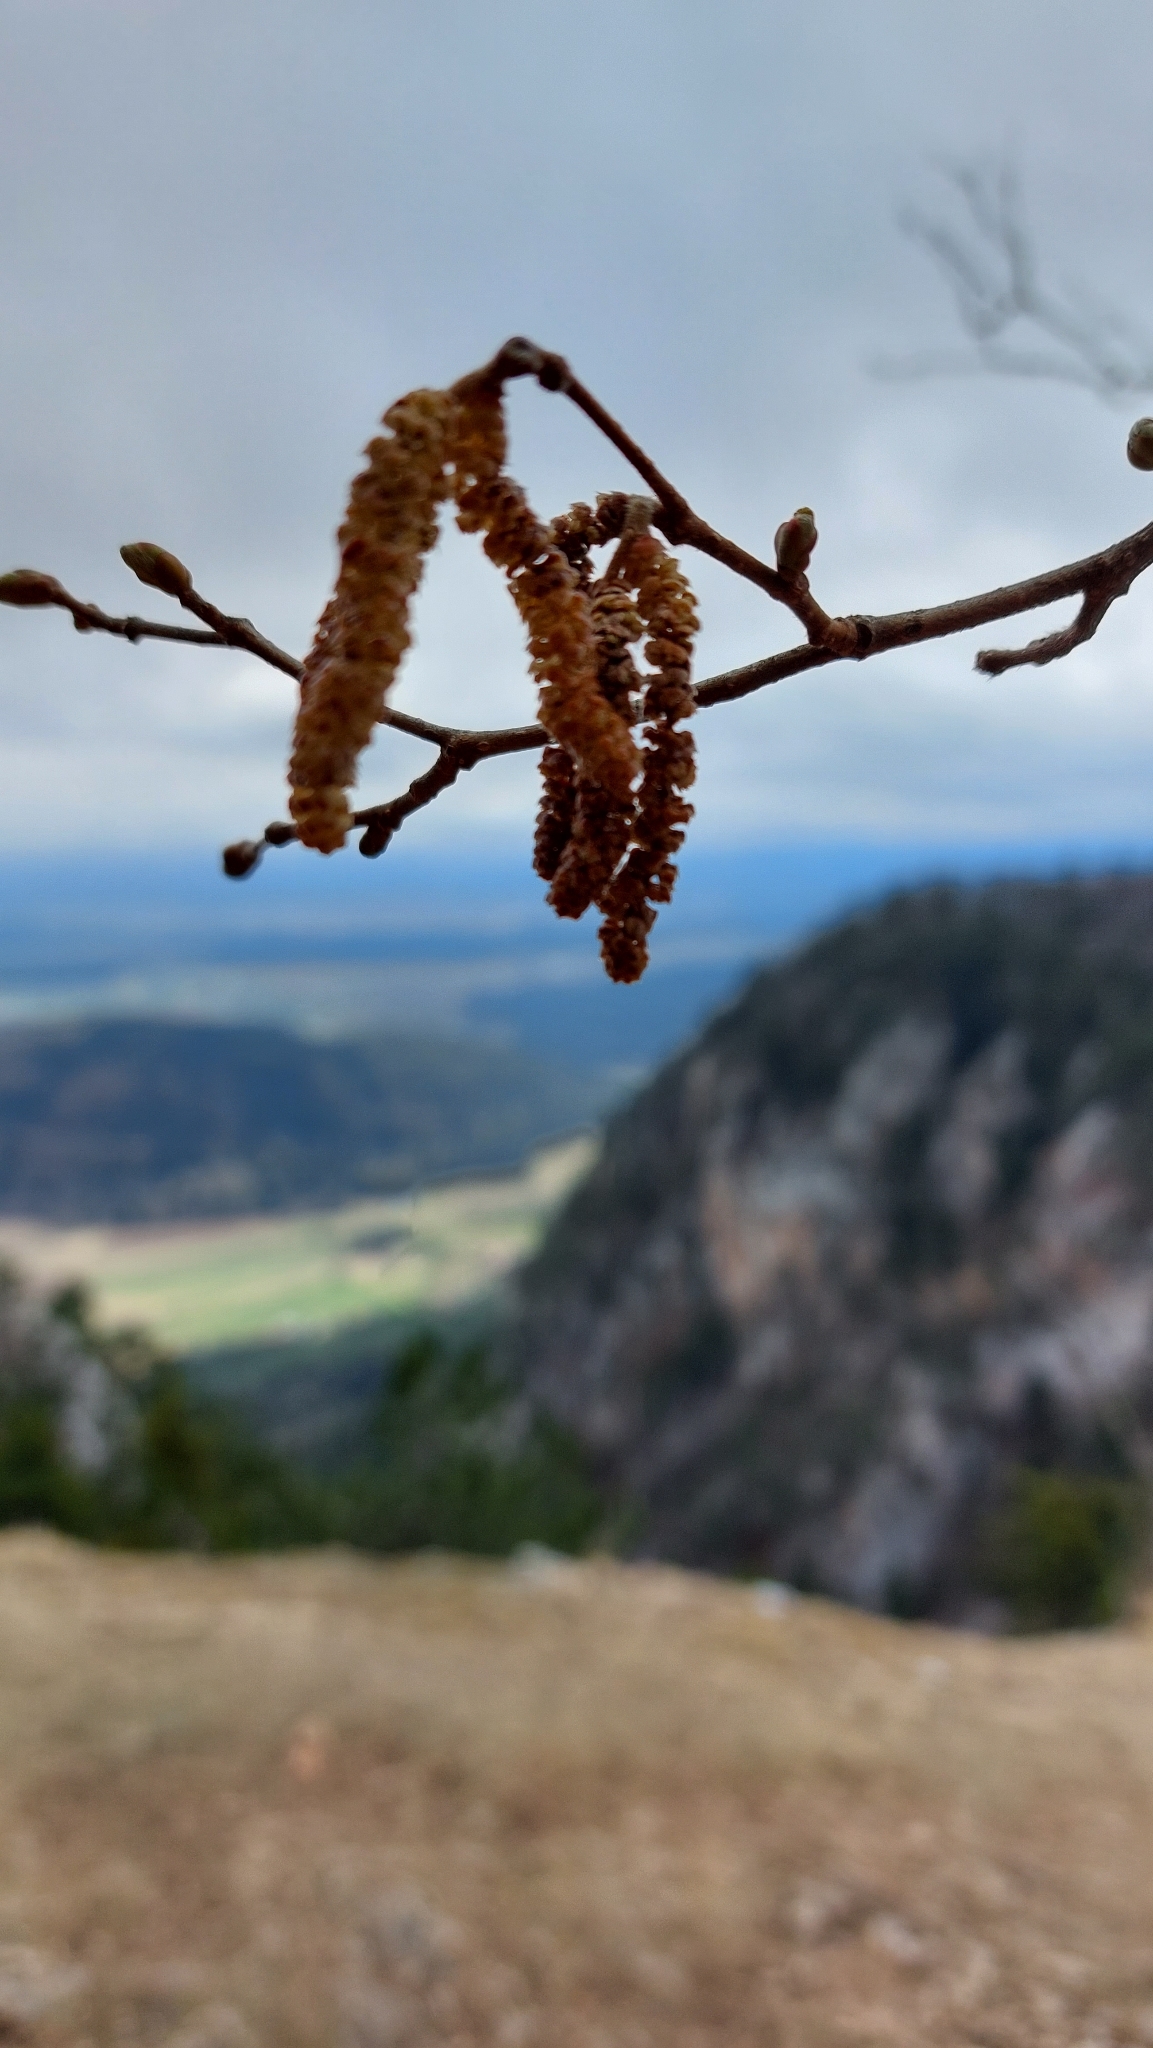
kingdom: Plantae
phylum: Tracheophyta
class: Magnoliopsida
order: Fagales
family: Betulaceae
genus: Corylus
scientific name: Corylus avellana
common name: European hazel
